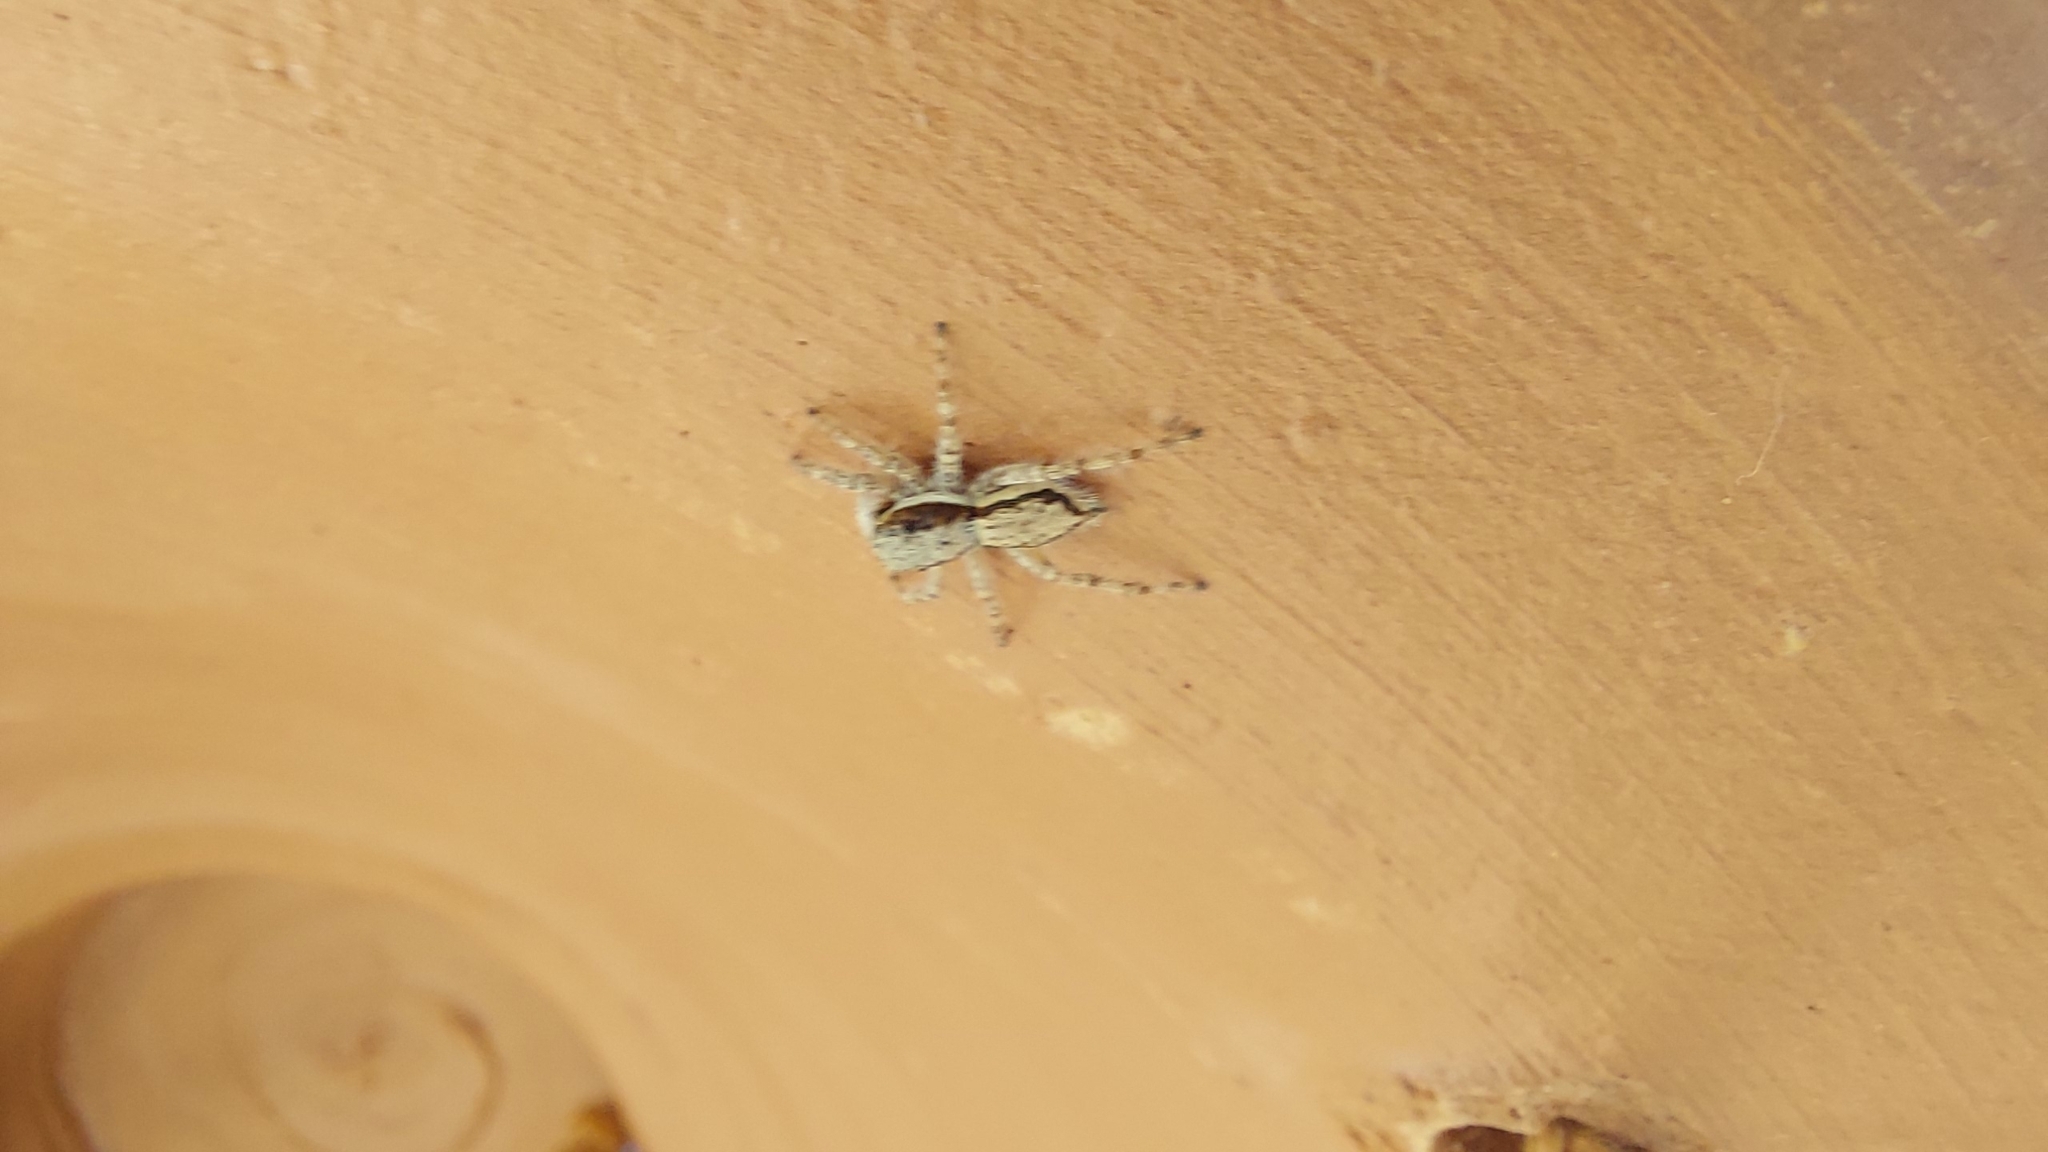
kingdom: Animalia
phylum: Arthropoda
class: Arachnida
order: Araneae
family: Salticidae
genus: Menemerus
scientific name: Menemerus bivittatus
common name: Gray wall jumper
